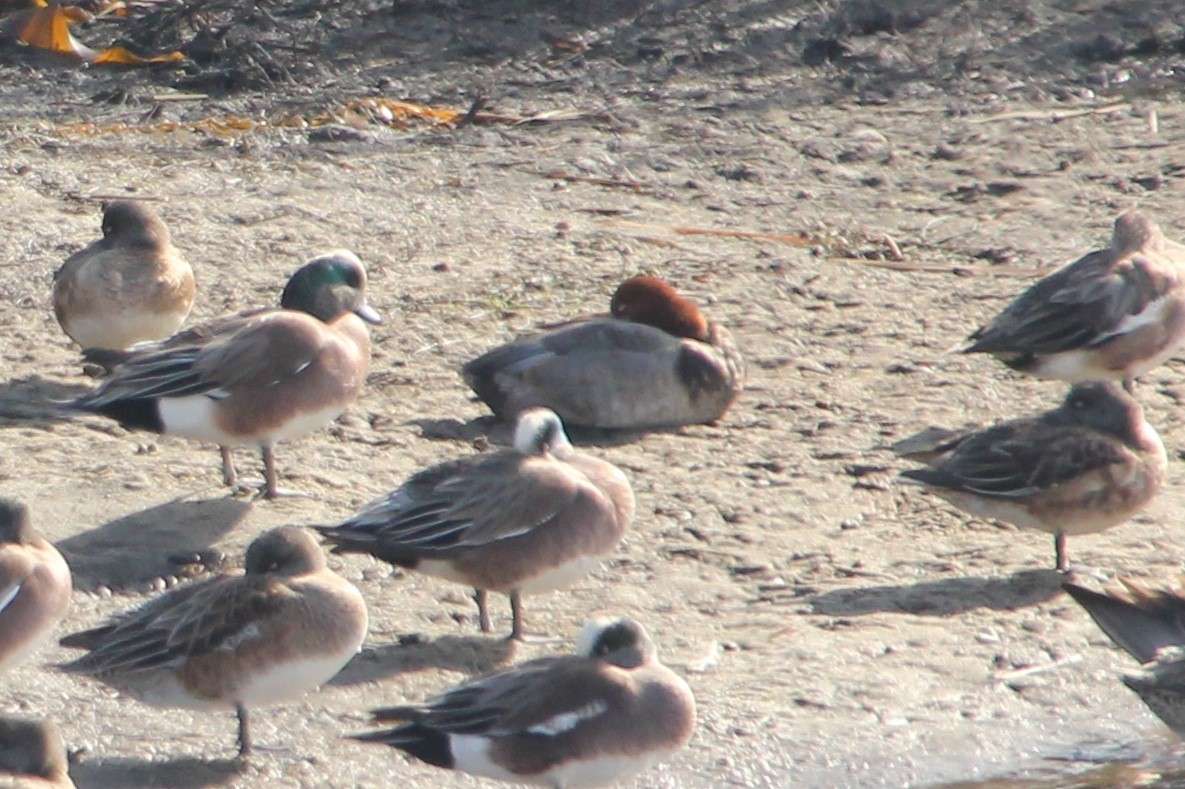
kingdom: Animalia
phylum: Chordata
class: Aves
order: Anseriformes
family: Anatidae
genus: Aythya
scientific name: Aythya americana
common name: Redhead
